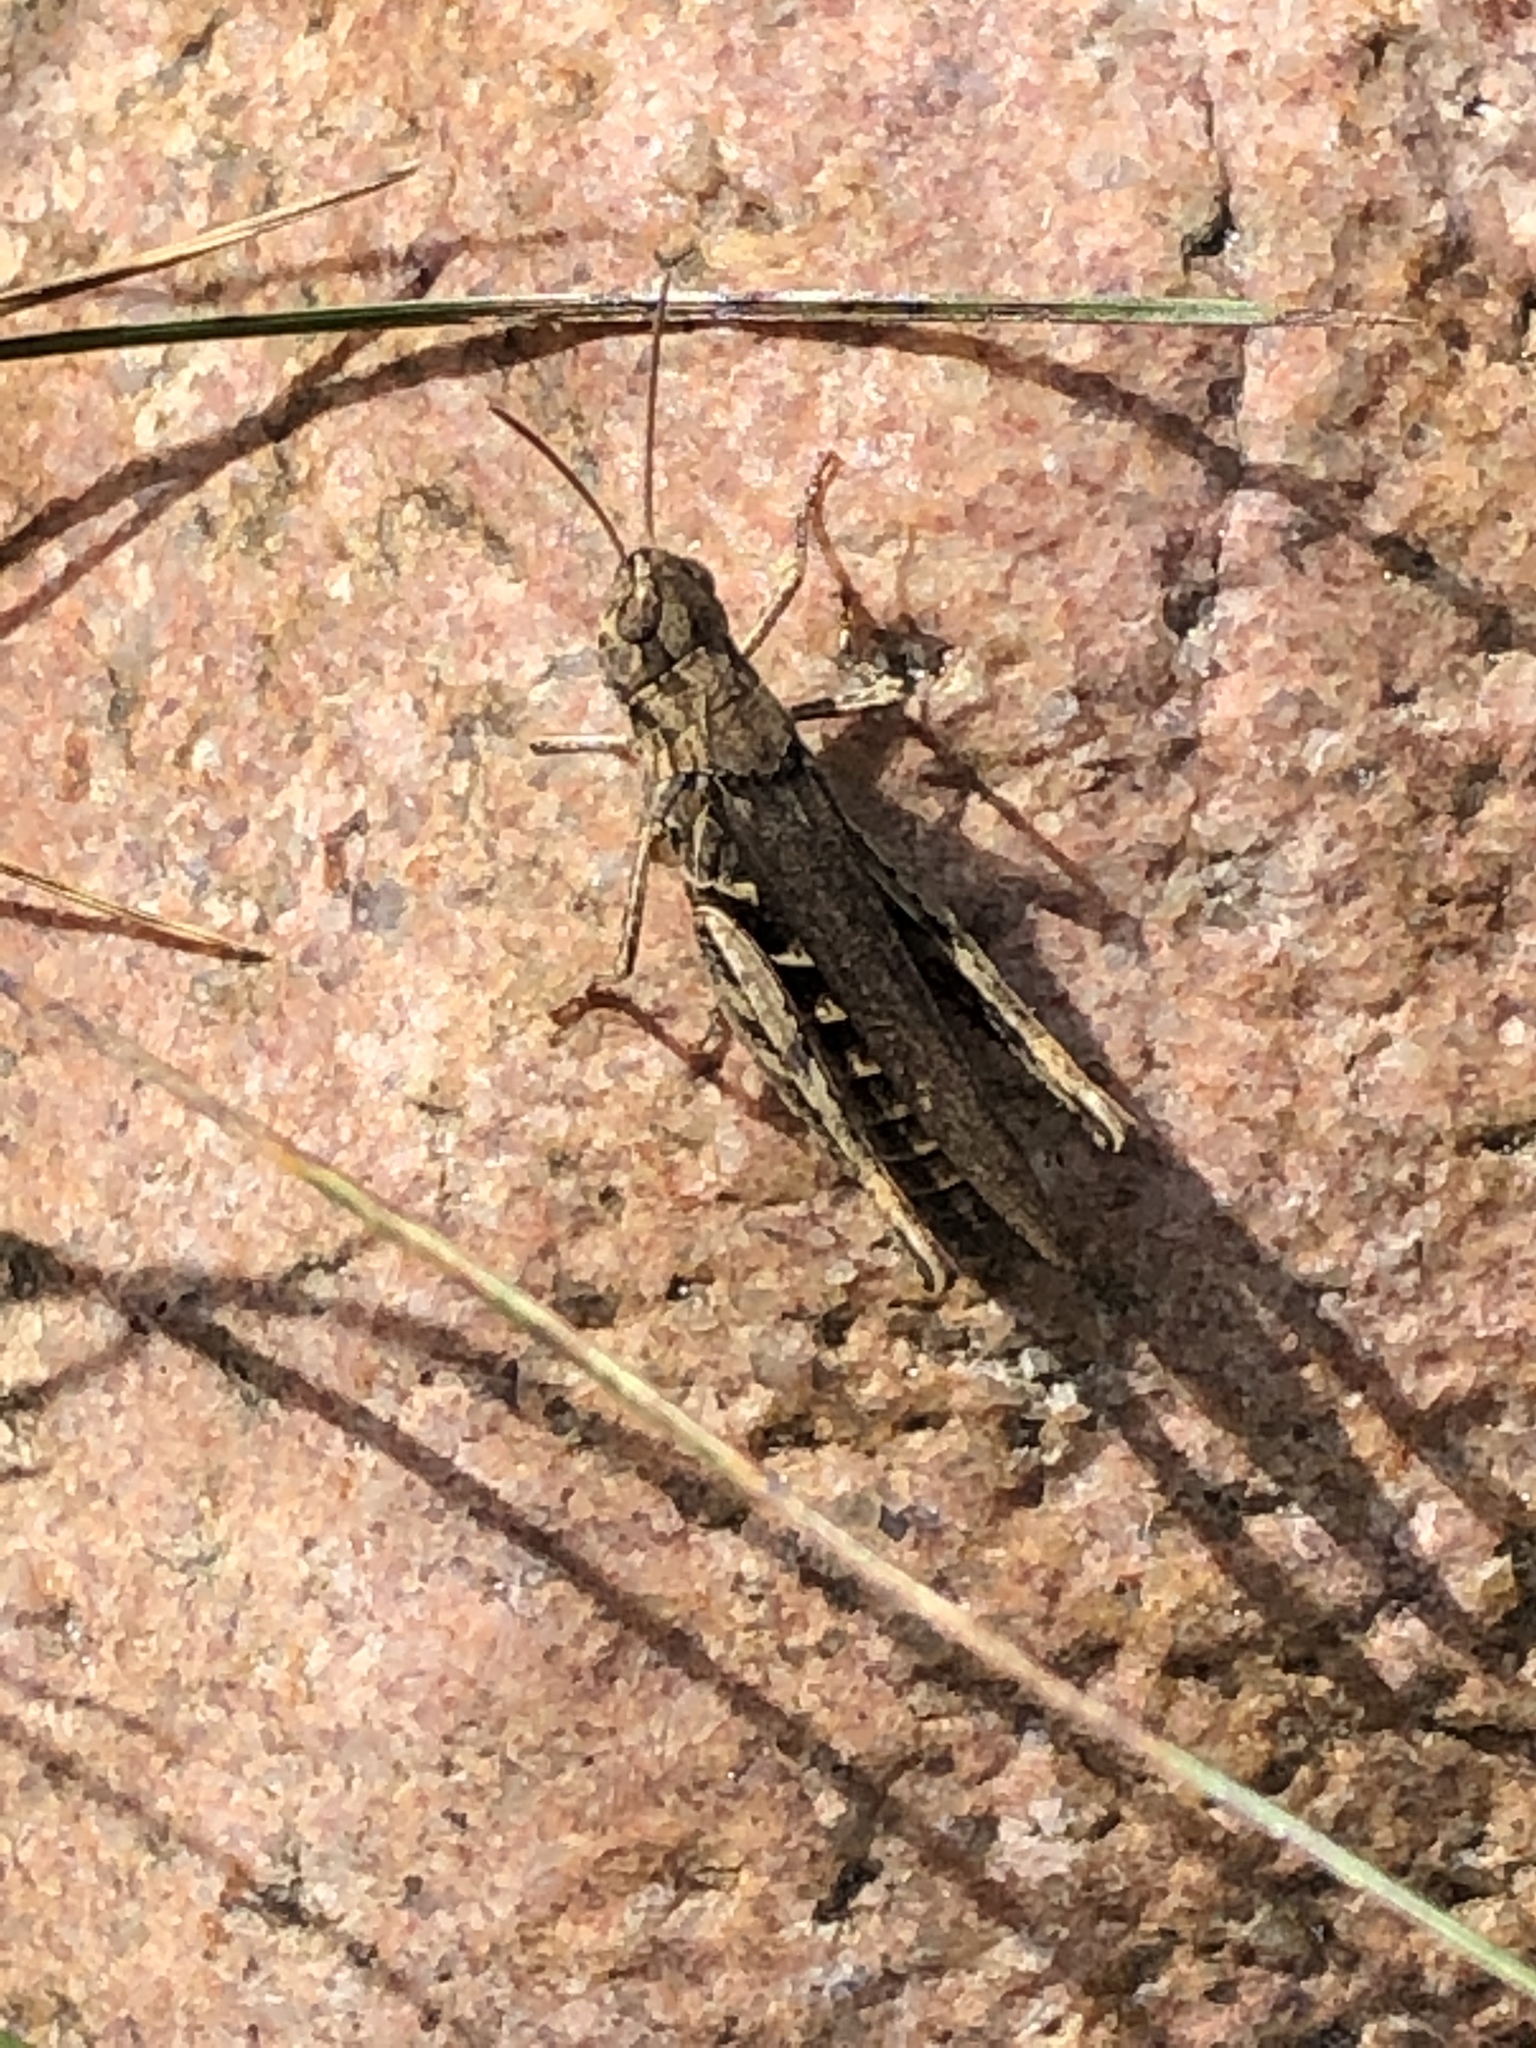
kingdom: Animalia
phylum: Arthropoda
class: Insecta
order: Orthoptera
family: Acrididae
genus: Chorthippus
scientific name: Chorthippus brunneus
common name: Field grasshopper
